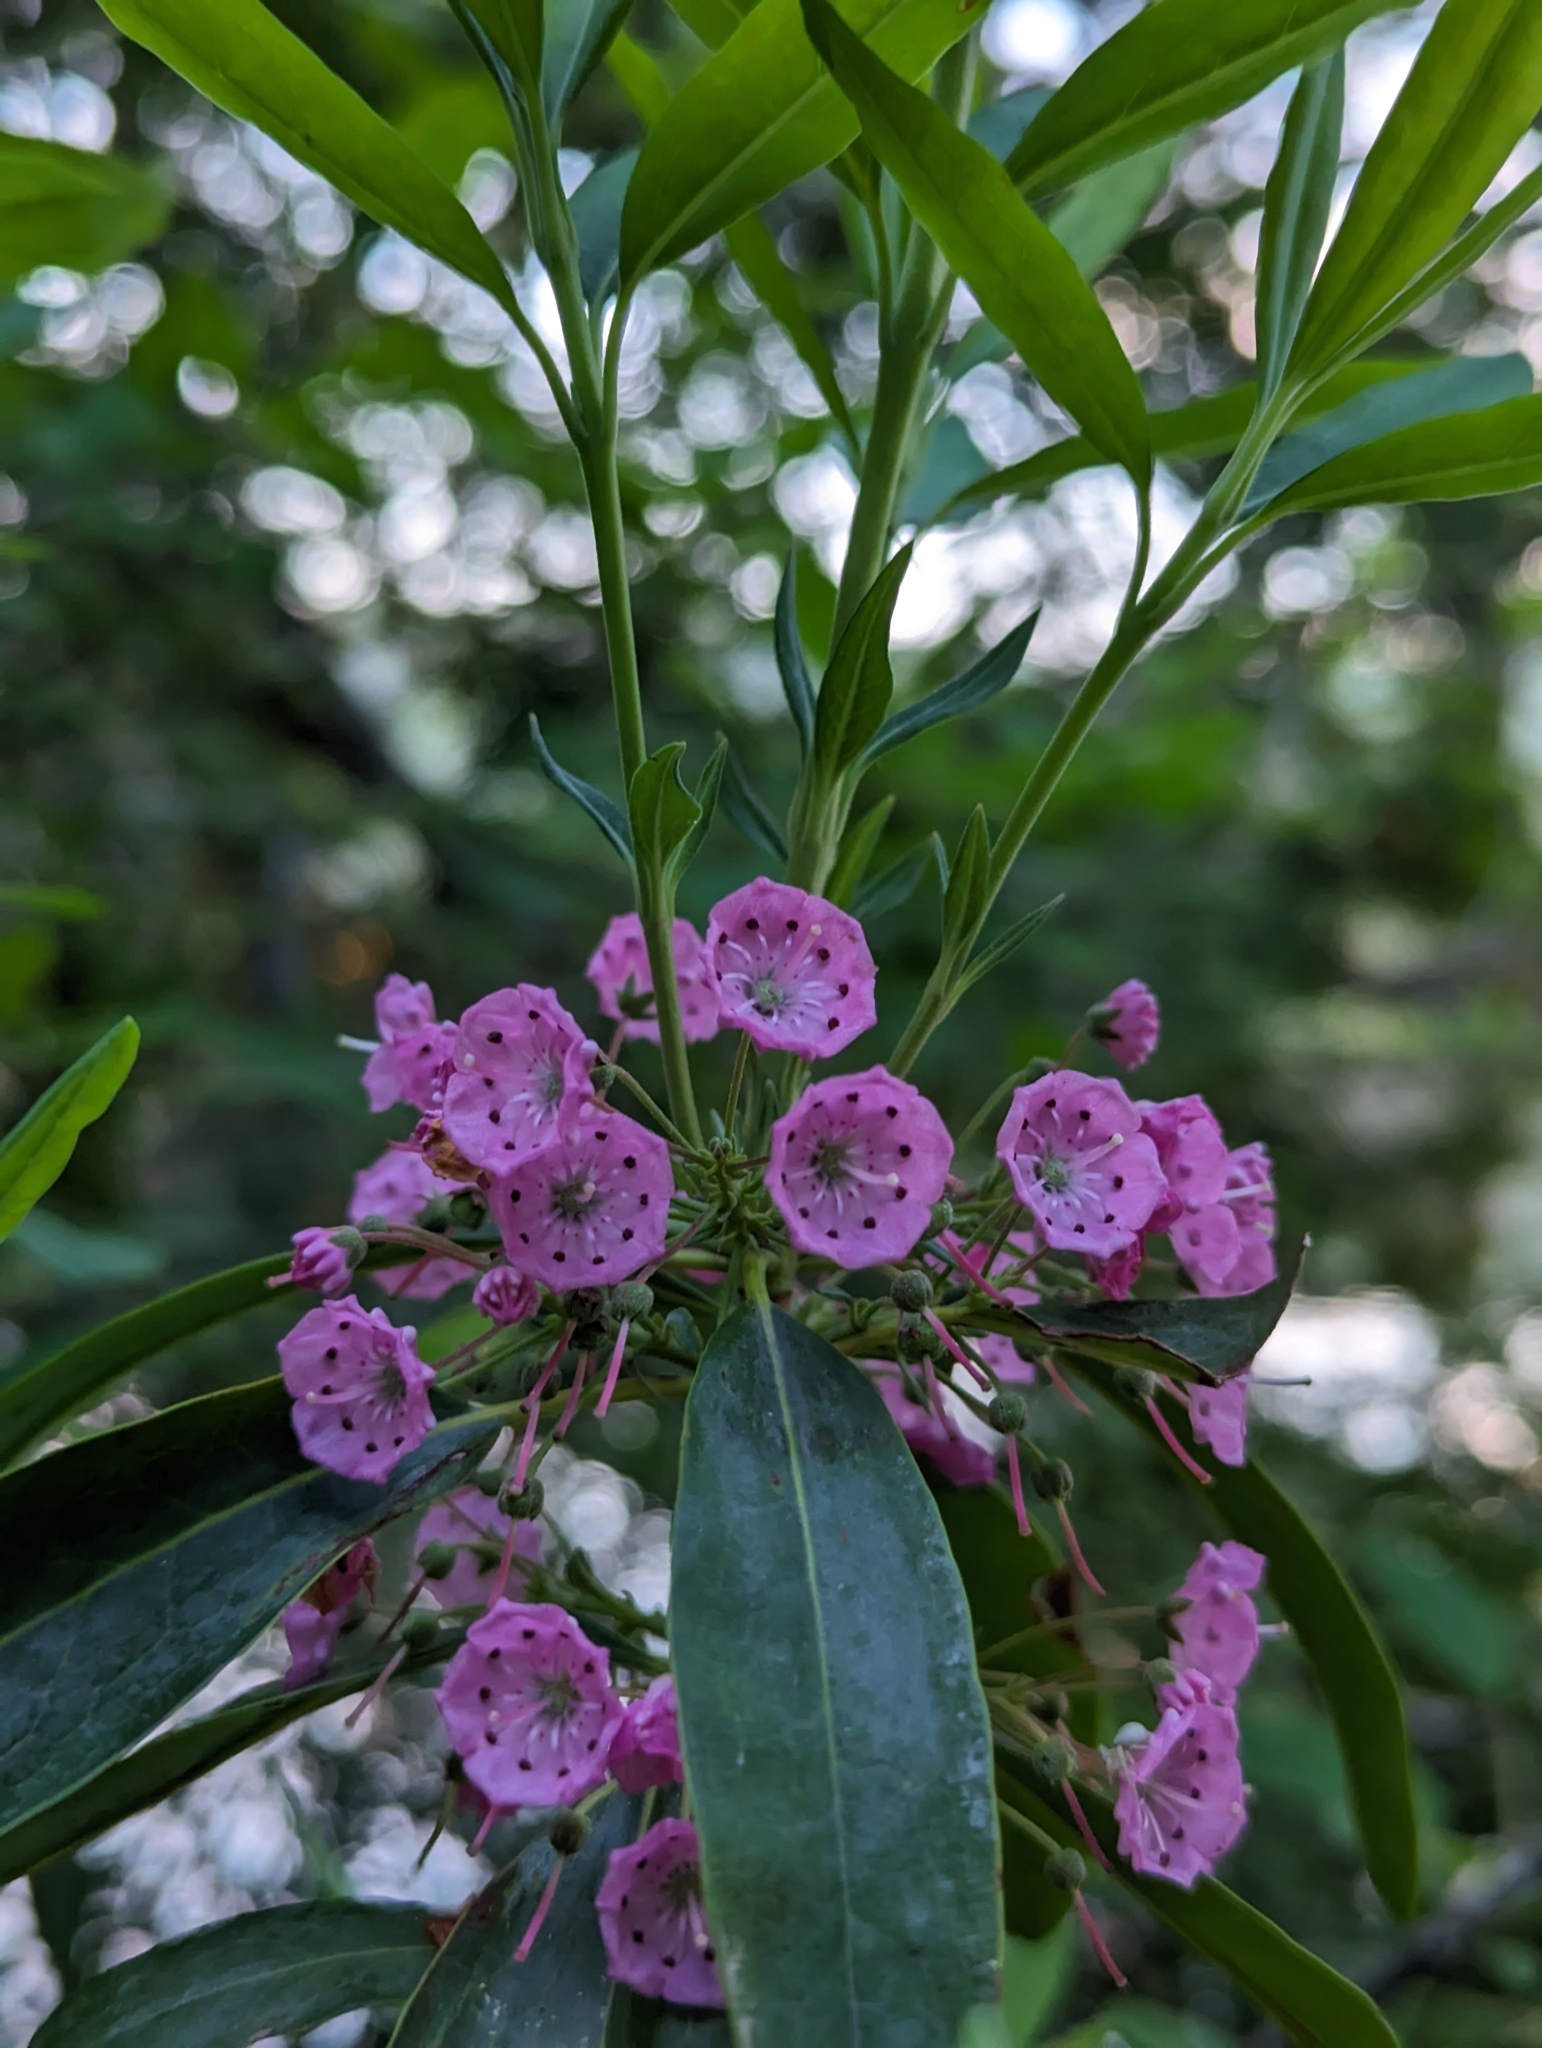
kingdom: Plantae
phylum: Tracheophyta
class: Magnoliopsida
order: Ericales
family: Ericaceae
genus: Kalmia
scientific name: Kalmia angustifolia
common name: Sheep-laurel
